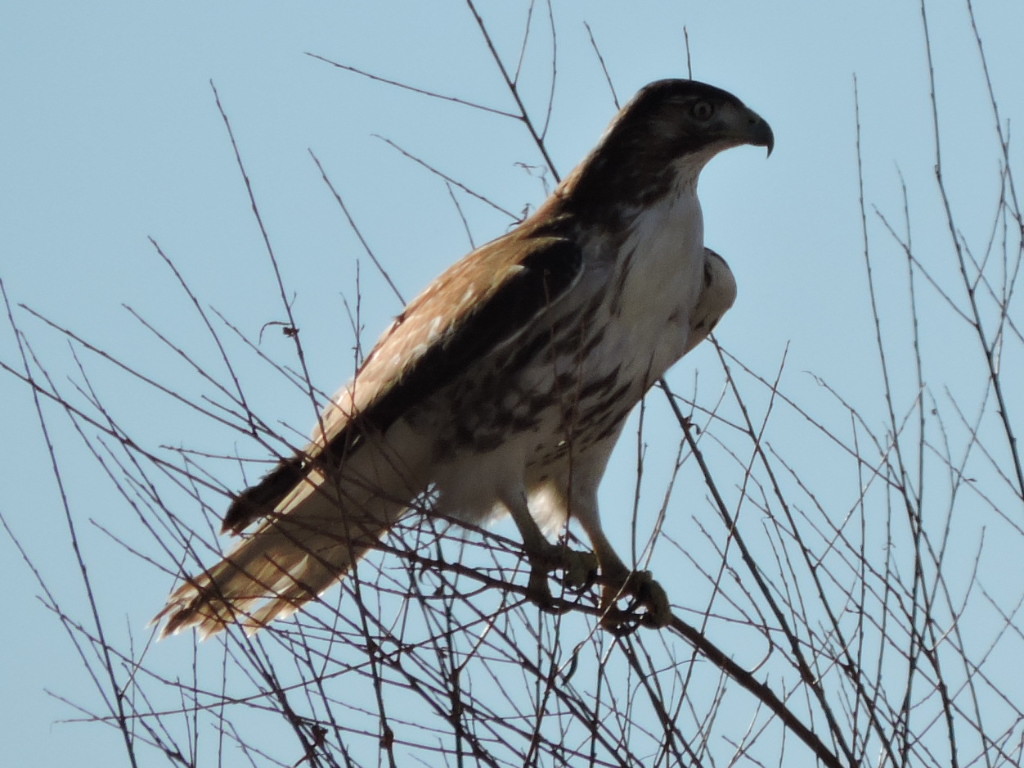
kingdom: Animalia
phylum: Chordata
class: Aves
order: Accipitriformes
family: Accipitridae
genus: Buteo
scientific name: Buteo jamaicensis
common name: Red-tailed hawk
